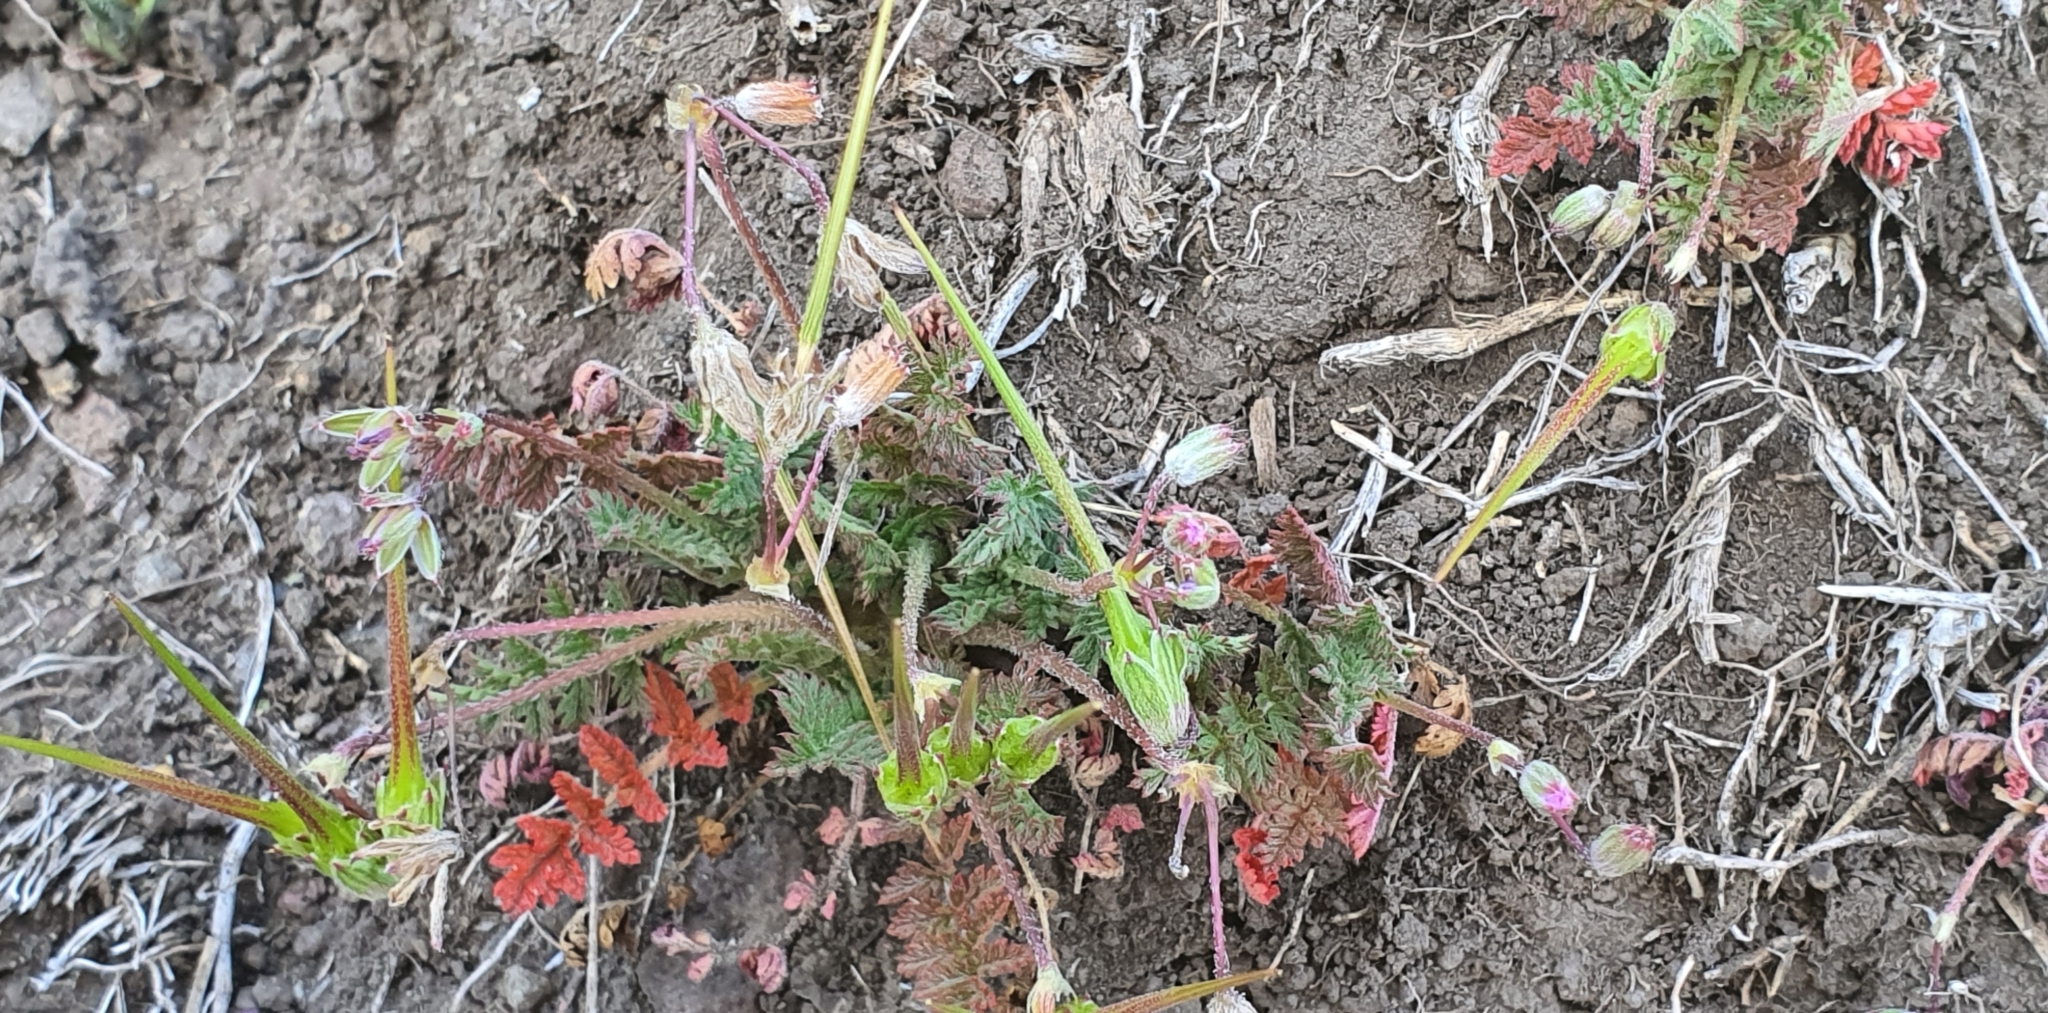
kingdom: Plantae
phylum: Tracheophyta
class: Magnoliopsida
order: Geraniales
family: Geraniaceae
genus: Erodium
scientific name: Erodium cicutarium
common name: Common stork's-bill
